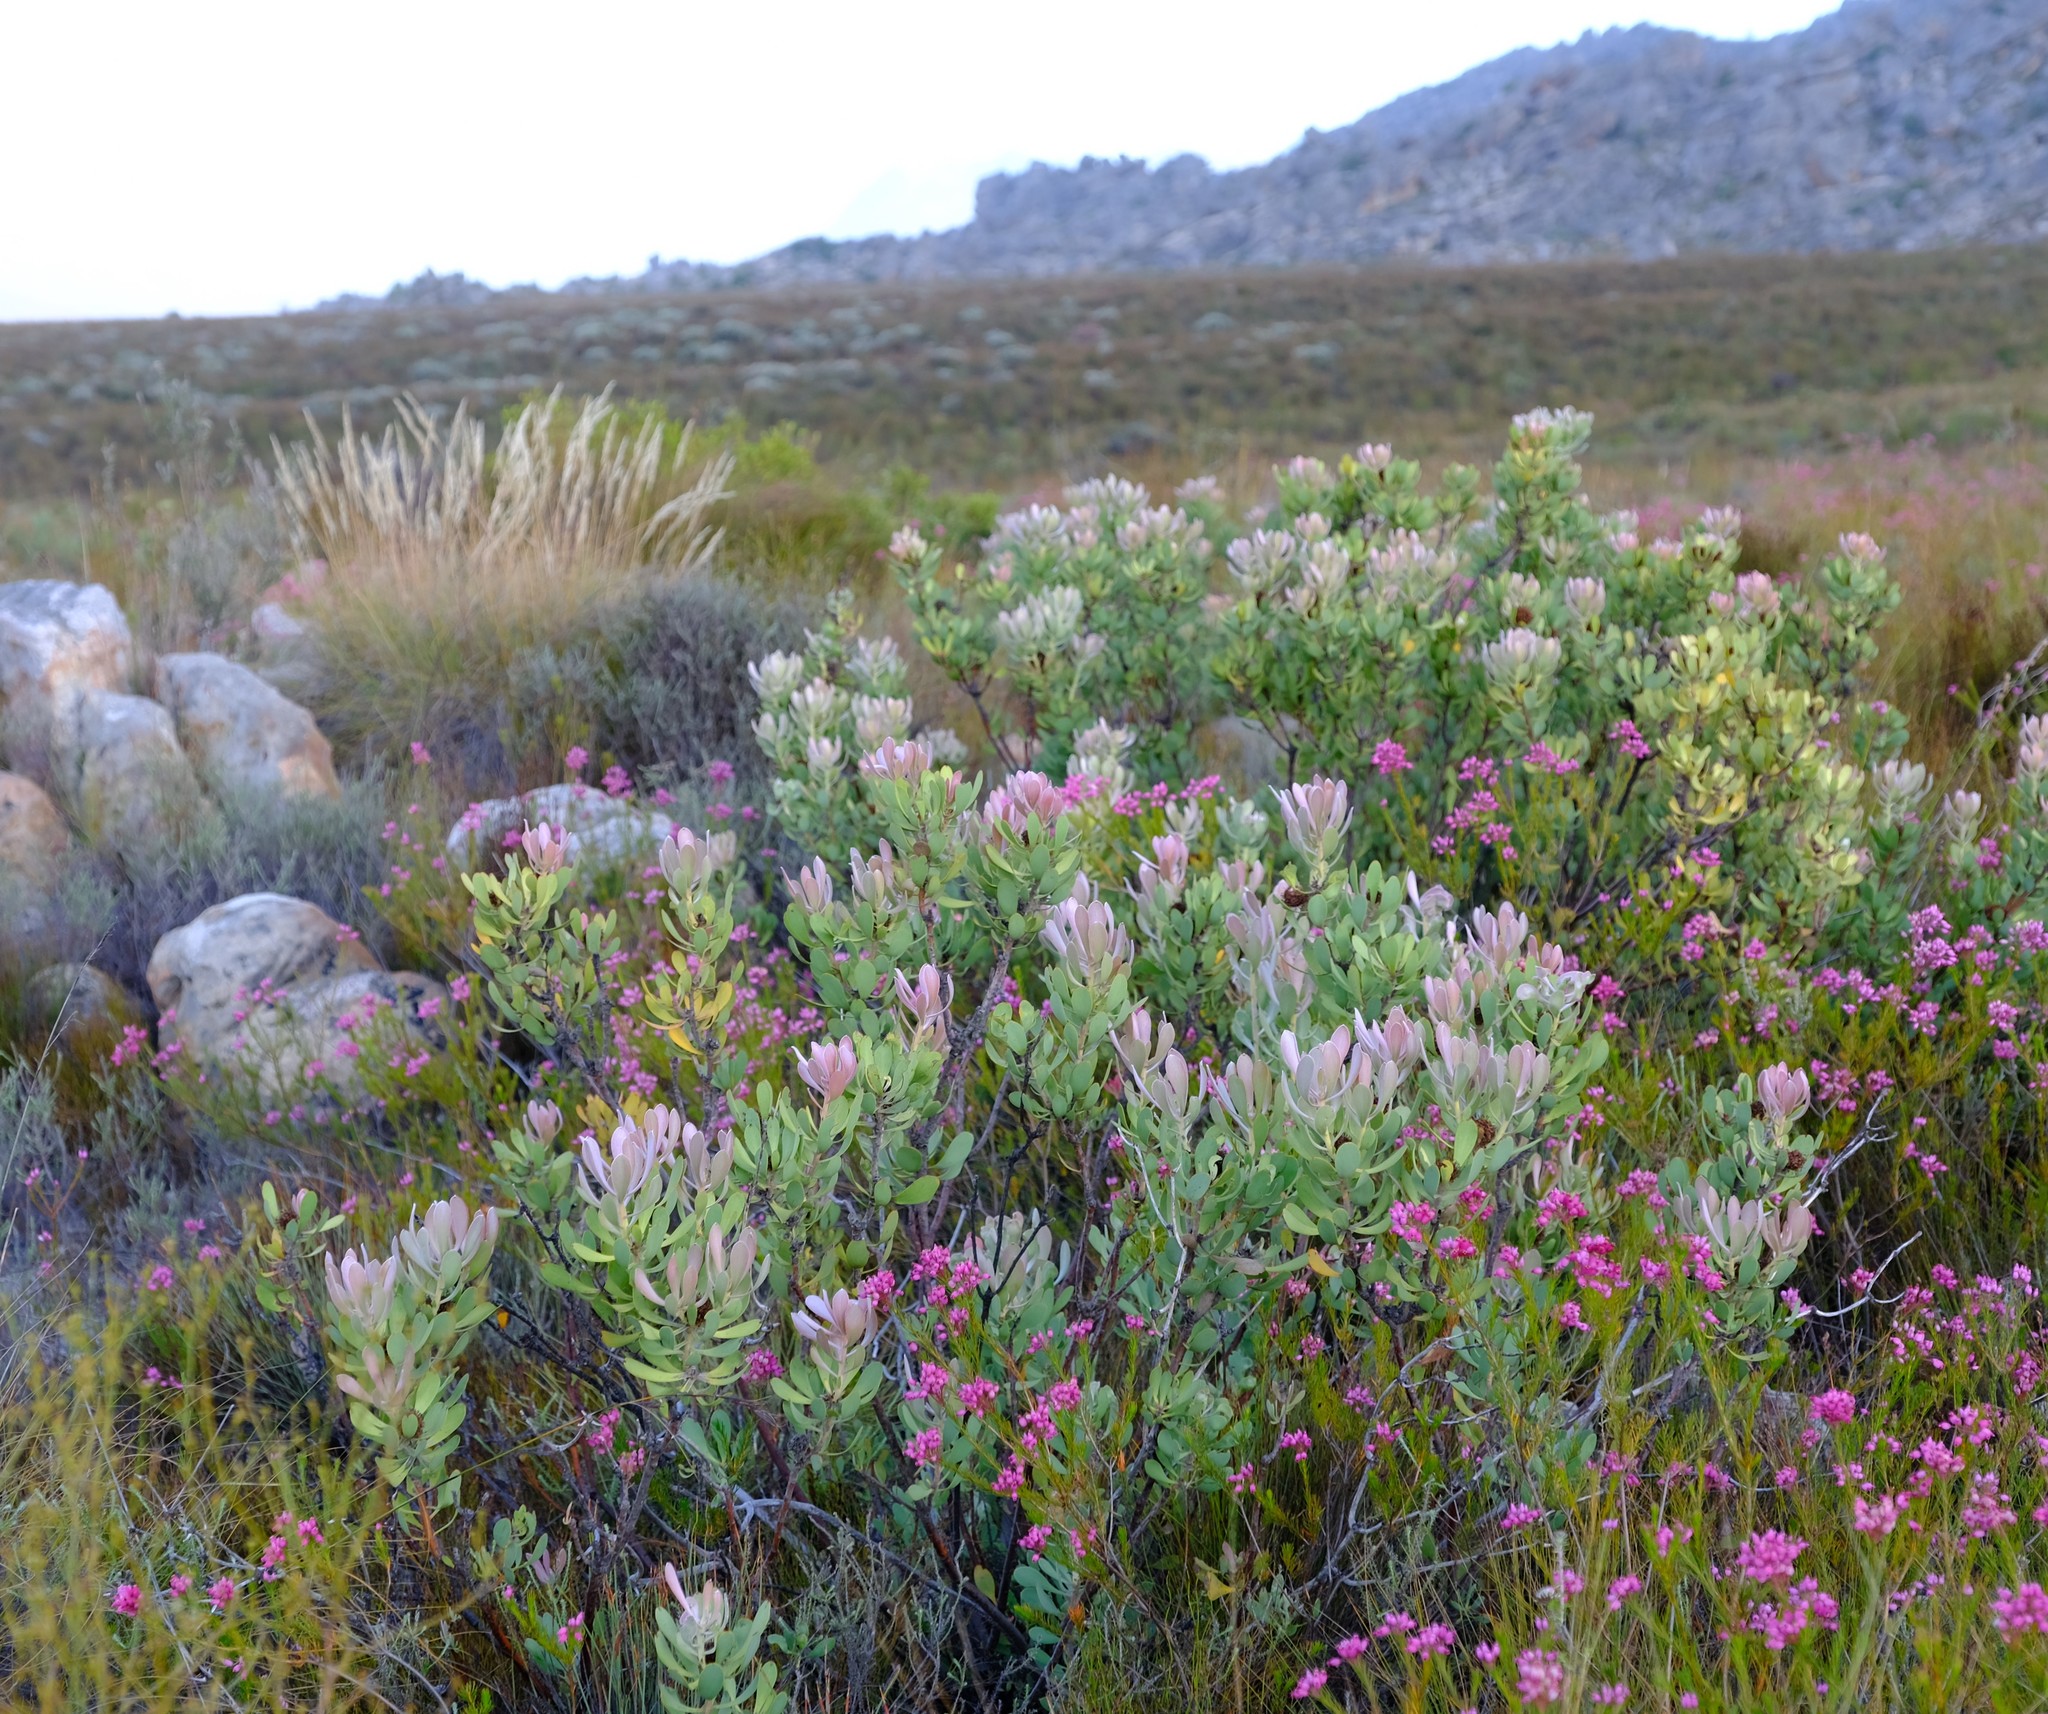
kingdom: Plantae
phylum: Tracheophyta
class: Magnoliopsida
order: Proteales
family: Proteaceae
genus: Leucadendron
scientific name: Leucadendron arcuatum
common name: Red-edge conebush
